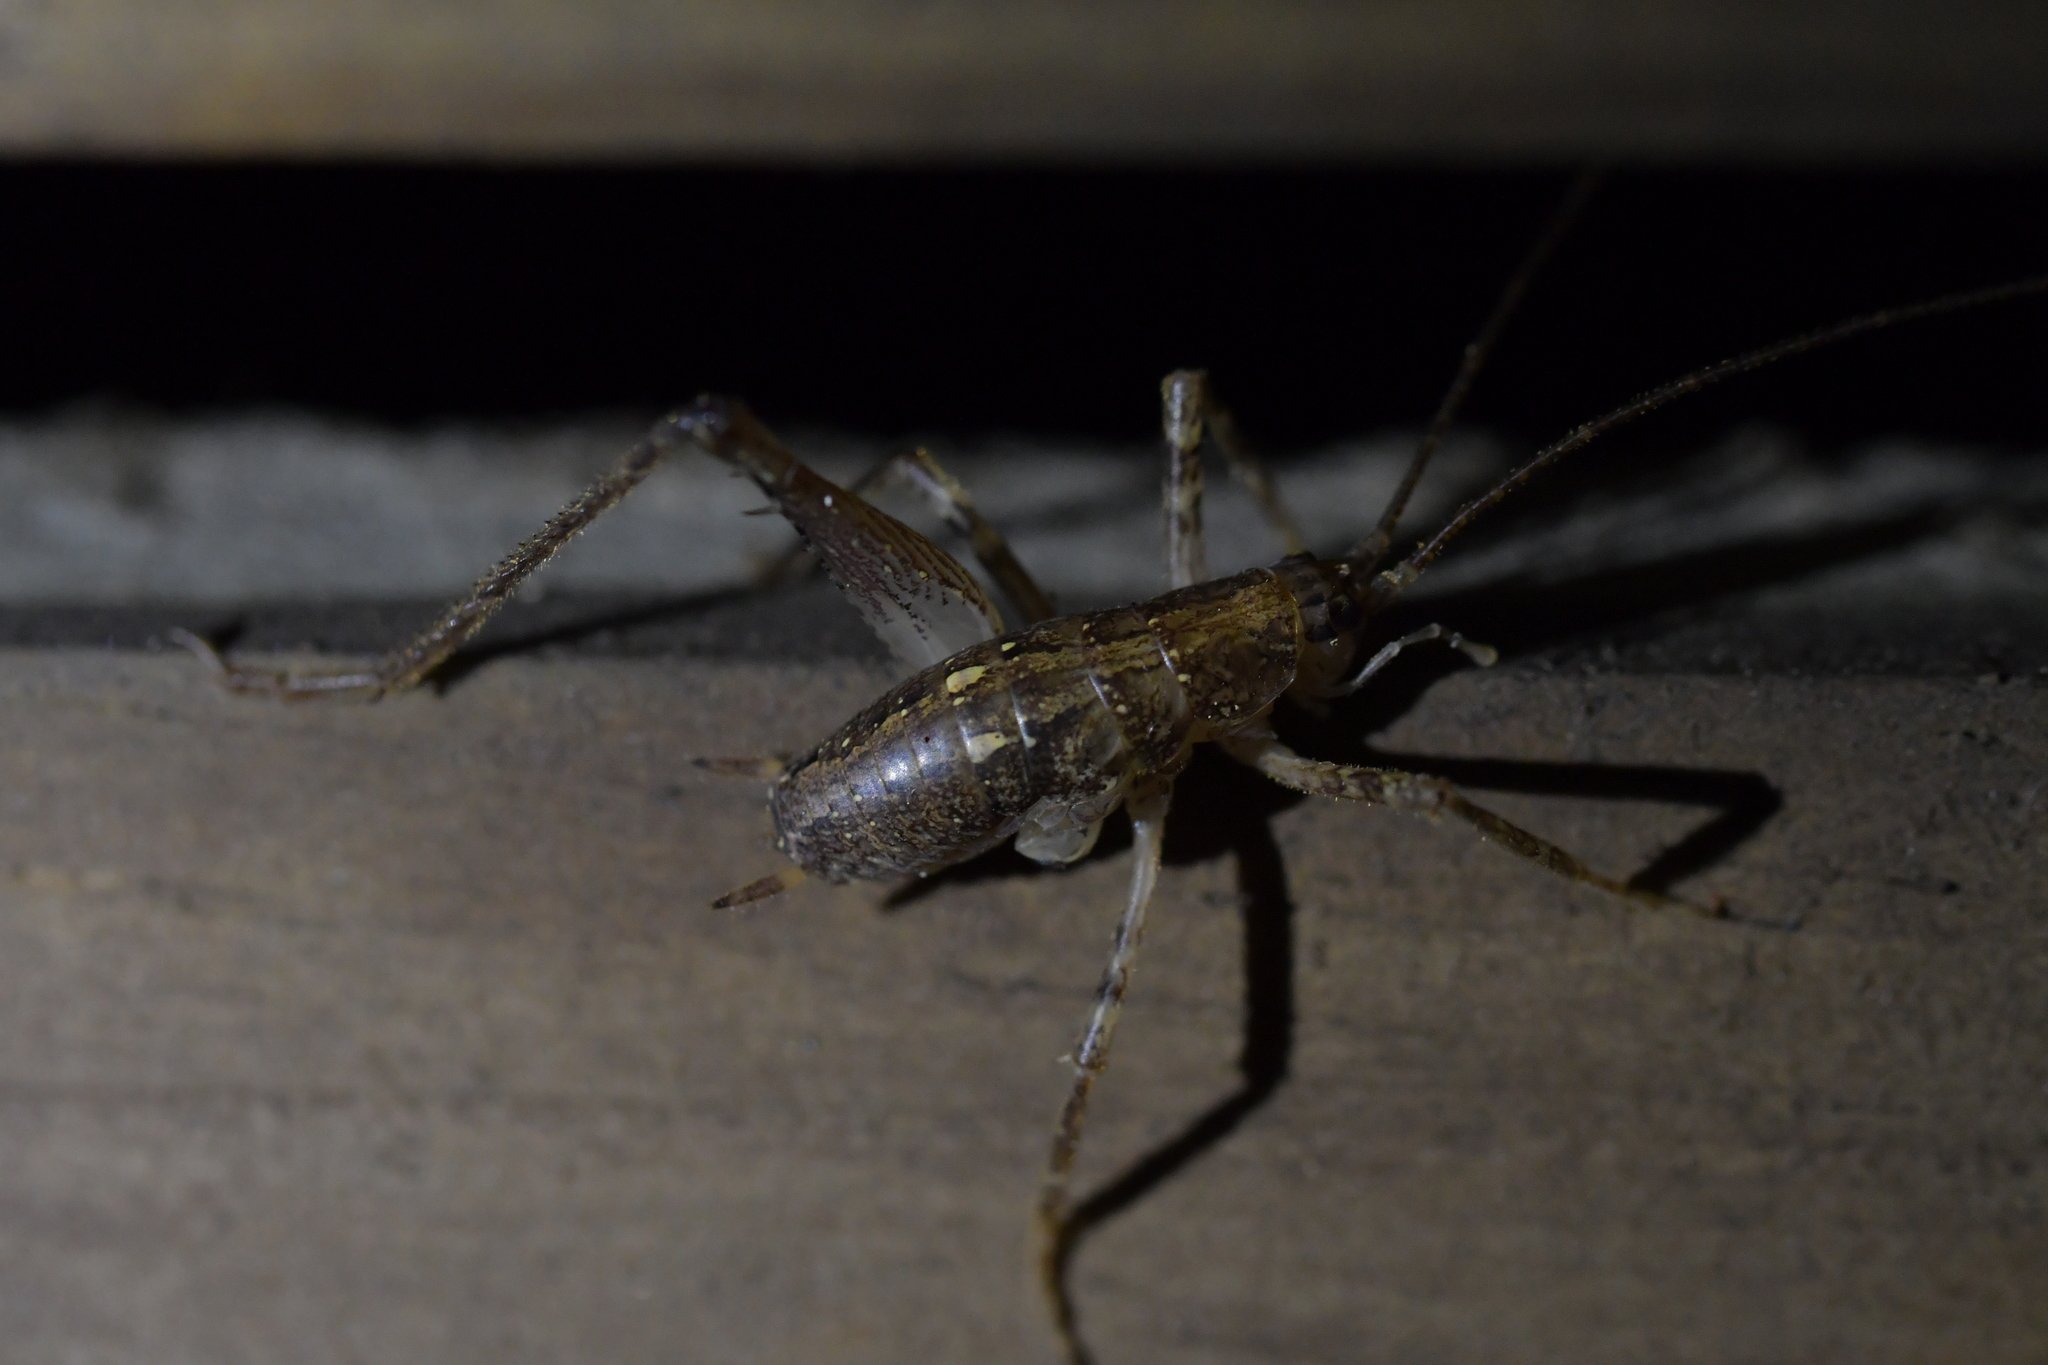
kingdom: Animalia
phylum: Arthropoda
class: Insecta
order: Orthoptera
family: Rhaphidophoridae
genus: Isoplectron
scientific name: Isoplectron armatum
